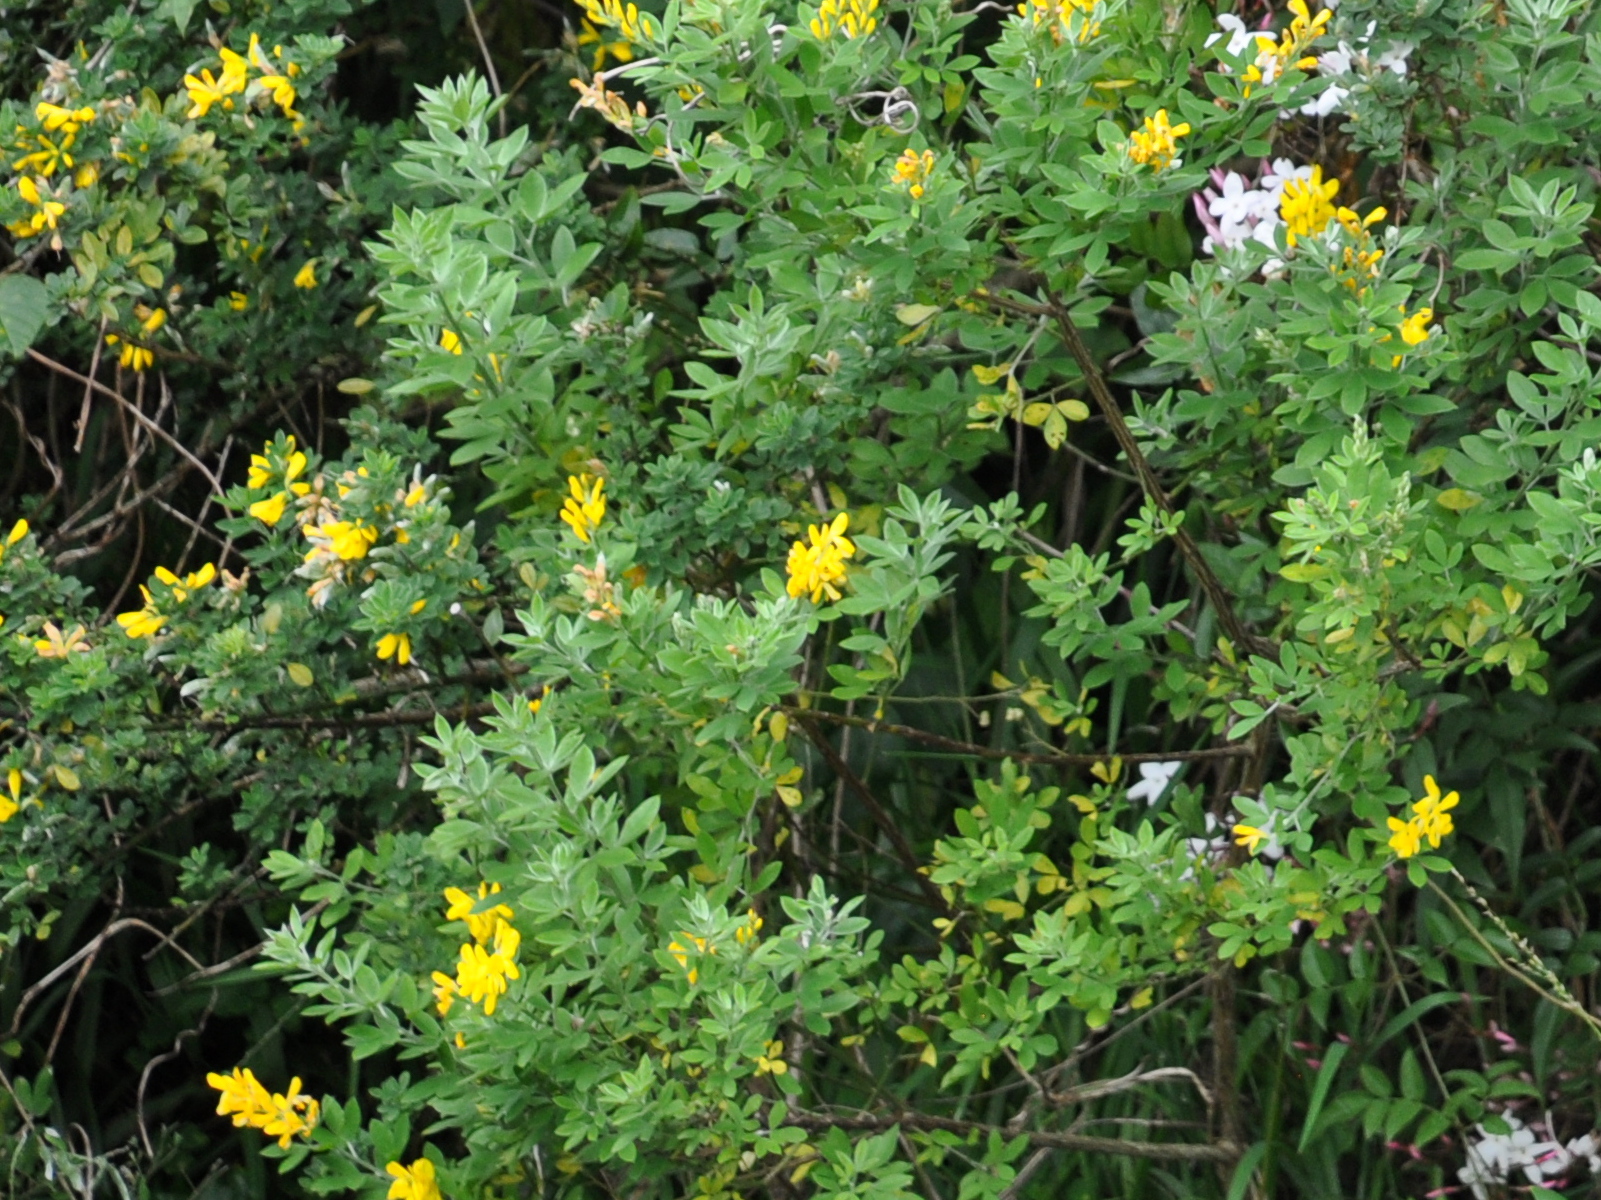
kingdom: Plantae
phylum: Tracheophyta
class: Magnoliopsida
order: Fabales
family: Fabaceae
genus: Genista
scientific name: Genista stenopetala
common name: Leafy broom
